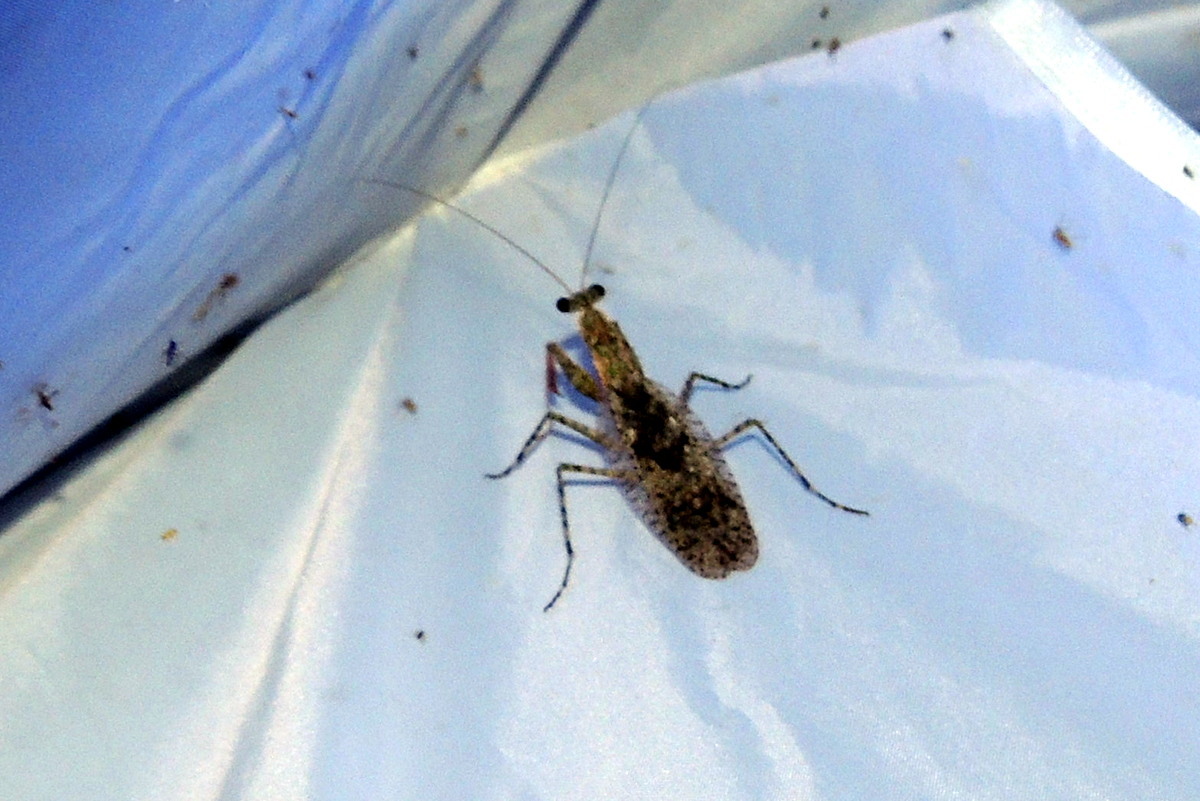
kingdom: Animalia
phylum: Arthropoda
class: Insecta
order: Mantodea
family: Epaphroditidae
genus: Gonatista
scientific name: Gonatista grisea
